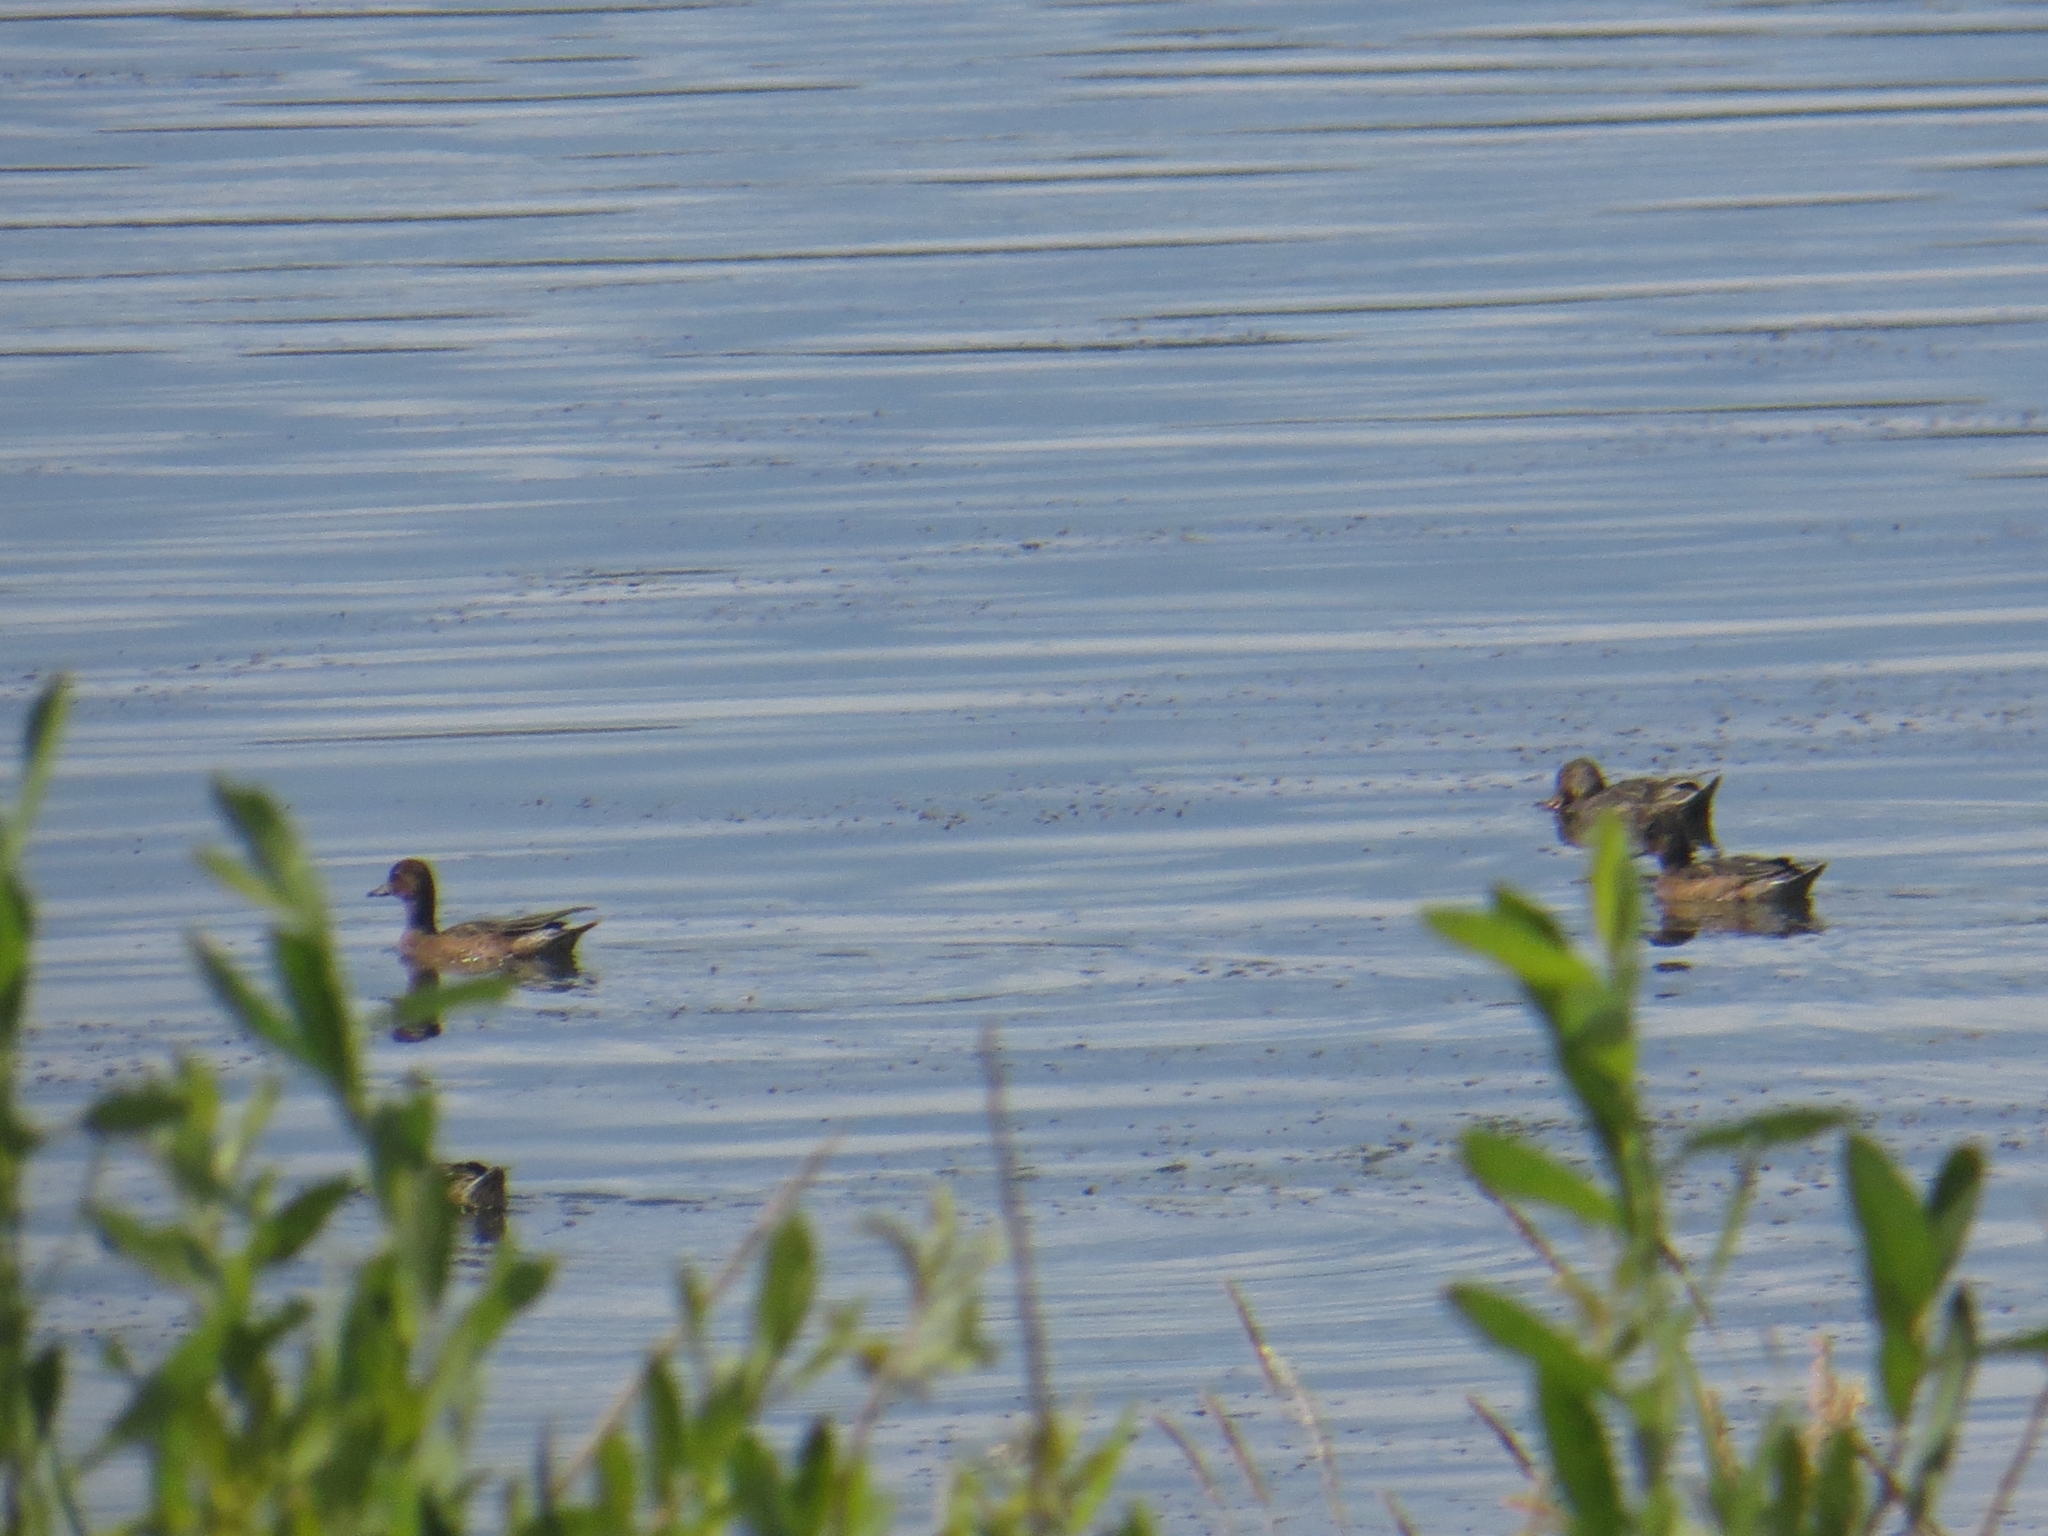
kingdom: Animalia
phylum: Chordata
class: Aves
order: Anseriformes
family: Anatidae
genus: Mareca
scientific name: Mareca penelope
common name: Eurasian wigeon
